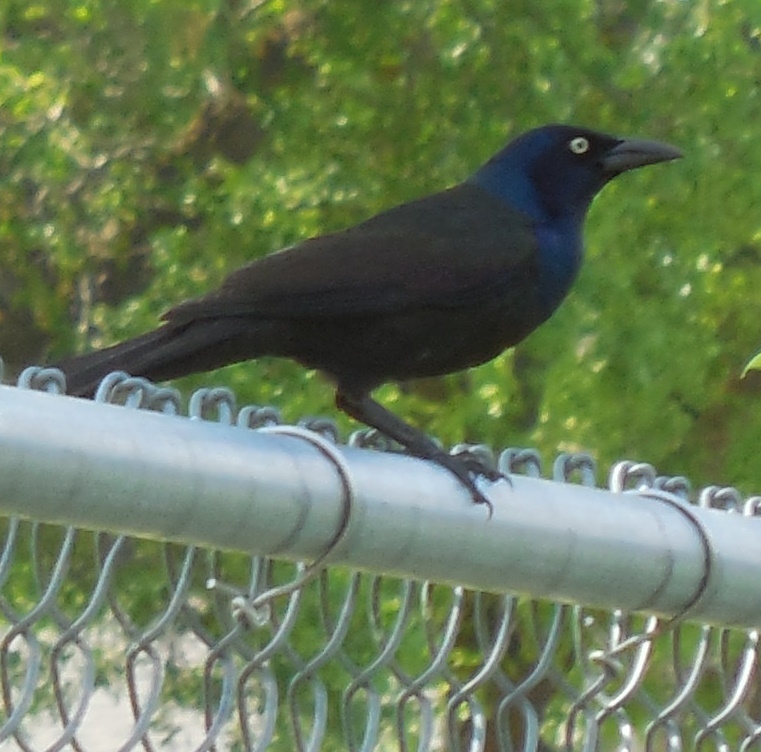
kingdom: Animalia
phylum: Chordata
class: Aves
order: Passeriformes
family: Icteridae
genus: Quiscalus
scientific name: Quiscalus quiscula
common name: Common grackle
